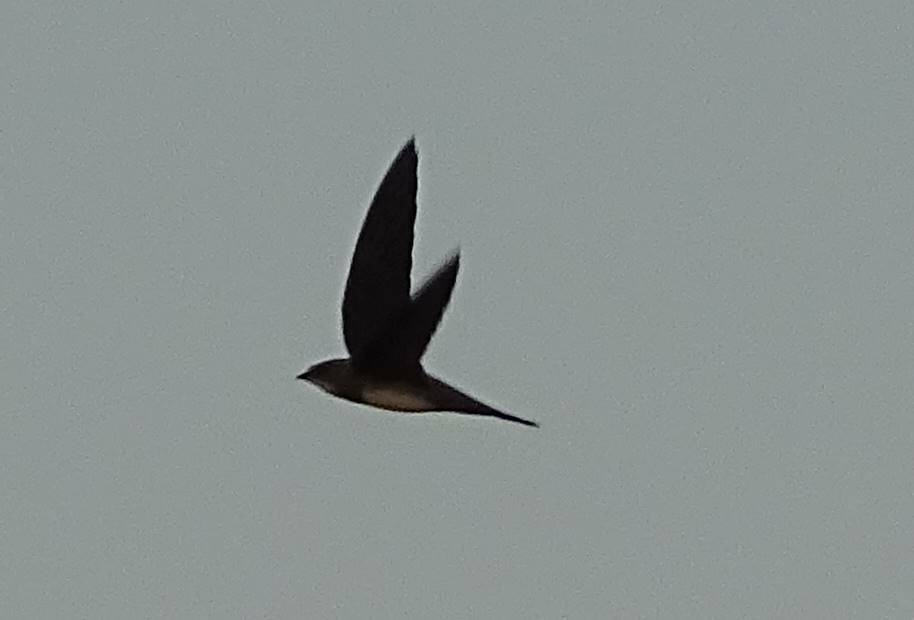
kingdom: Animalia
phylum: Chordata
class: Aves
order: Apodiformes
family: Apodidae
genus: Tachymarptis
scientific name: Tachymarptis melba
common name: Alpine swift
